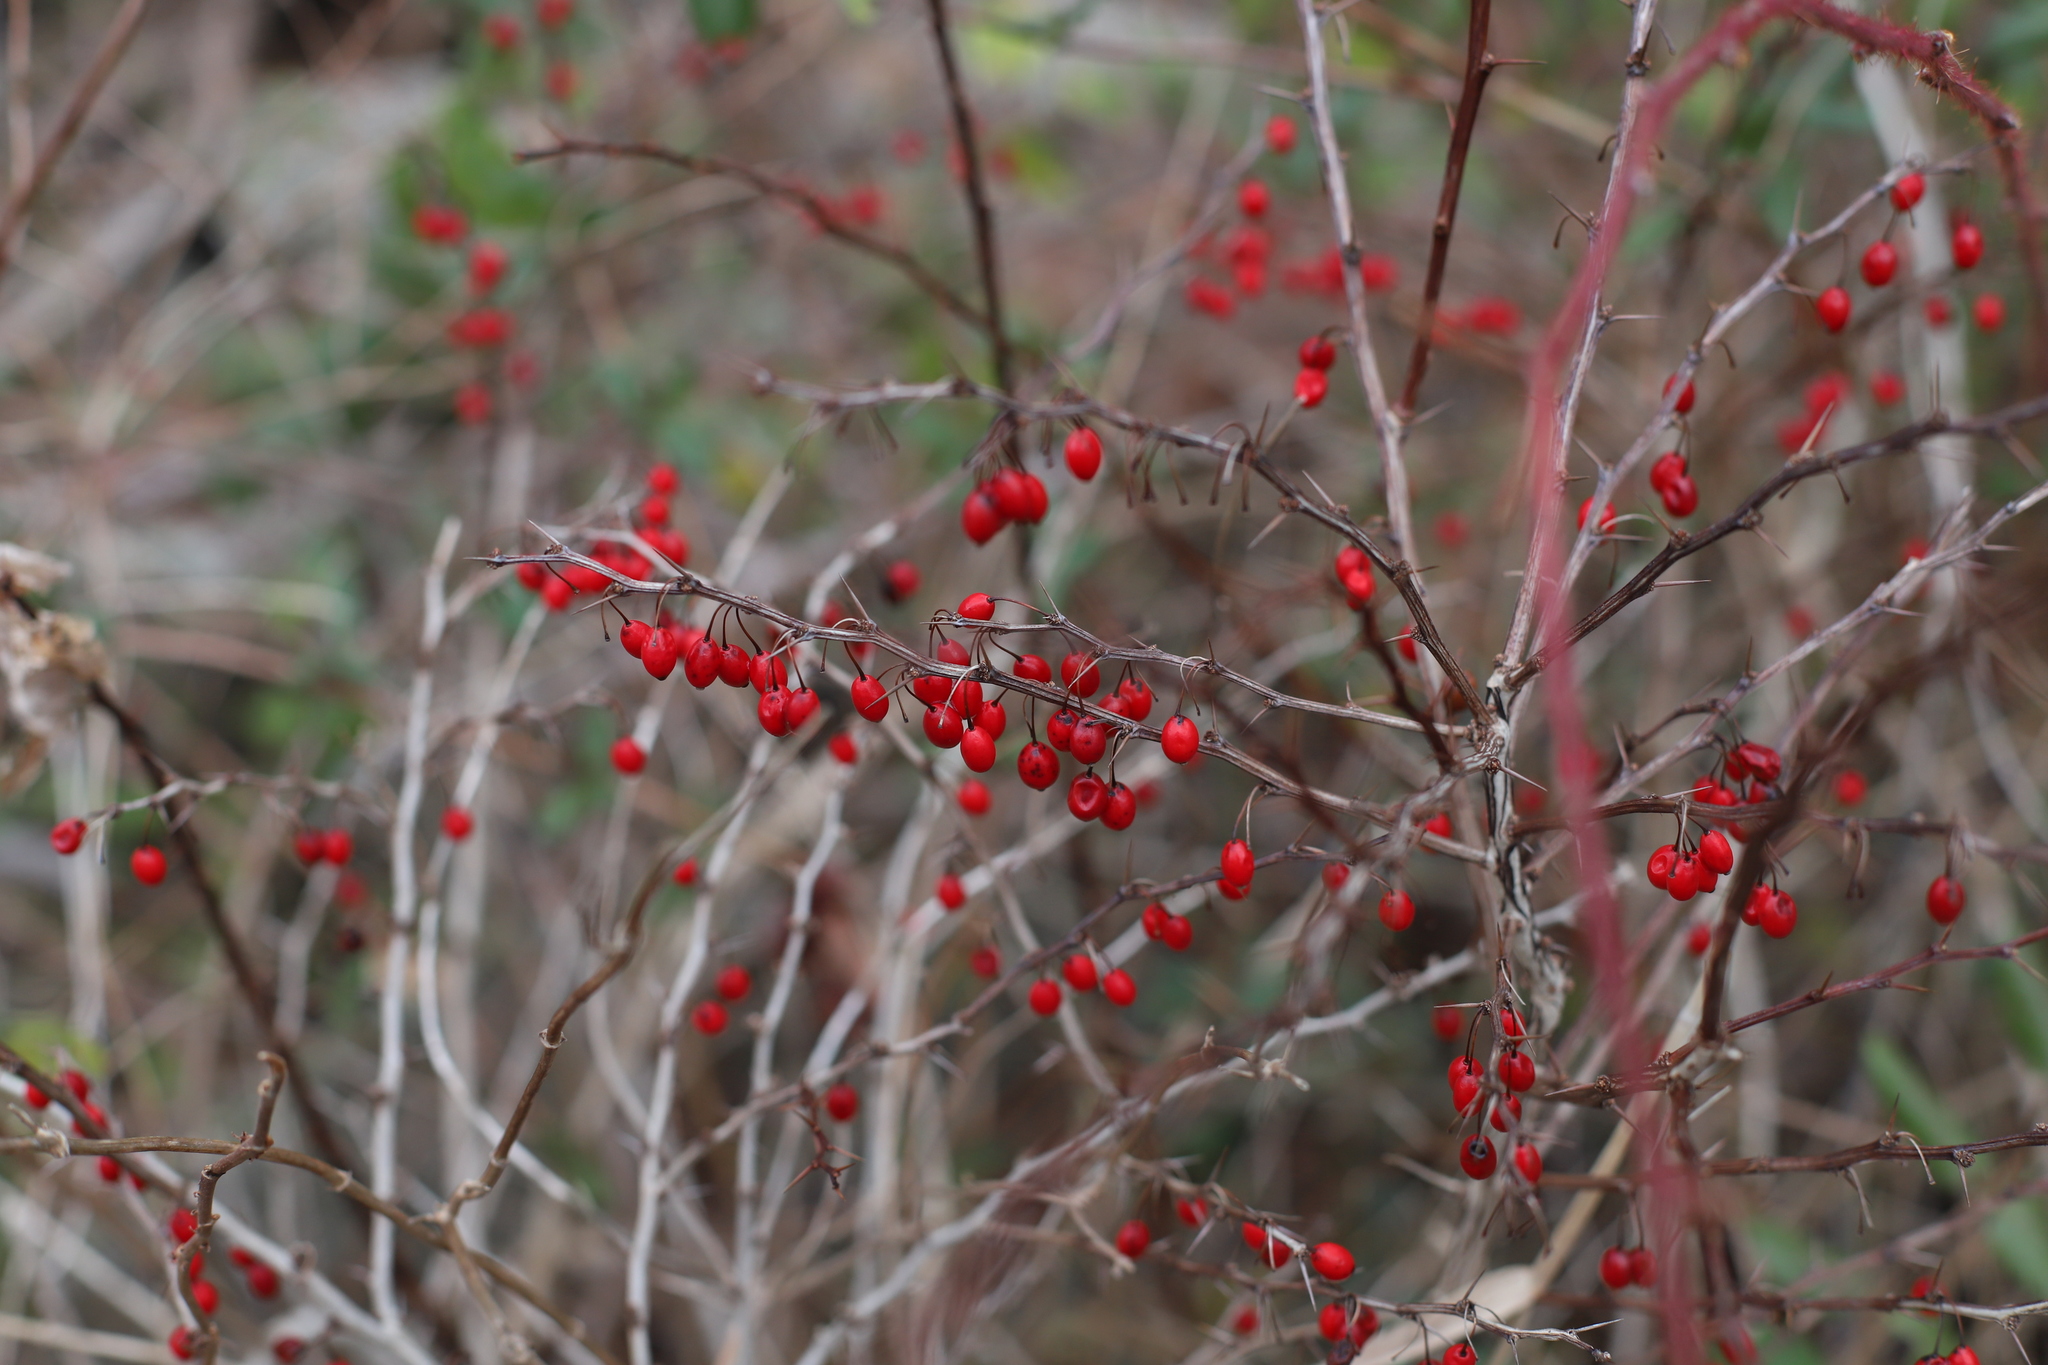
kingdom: Plantae
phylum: Tracheophyta
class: Magnoliopsida
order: Ranunculales
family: Berberidaceae
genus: Berberis
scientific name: Berberis thunbergii
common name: Japanese barberry
